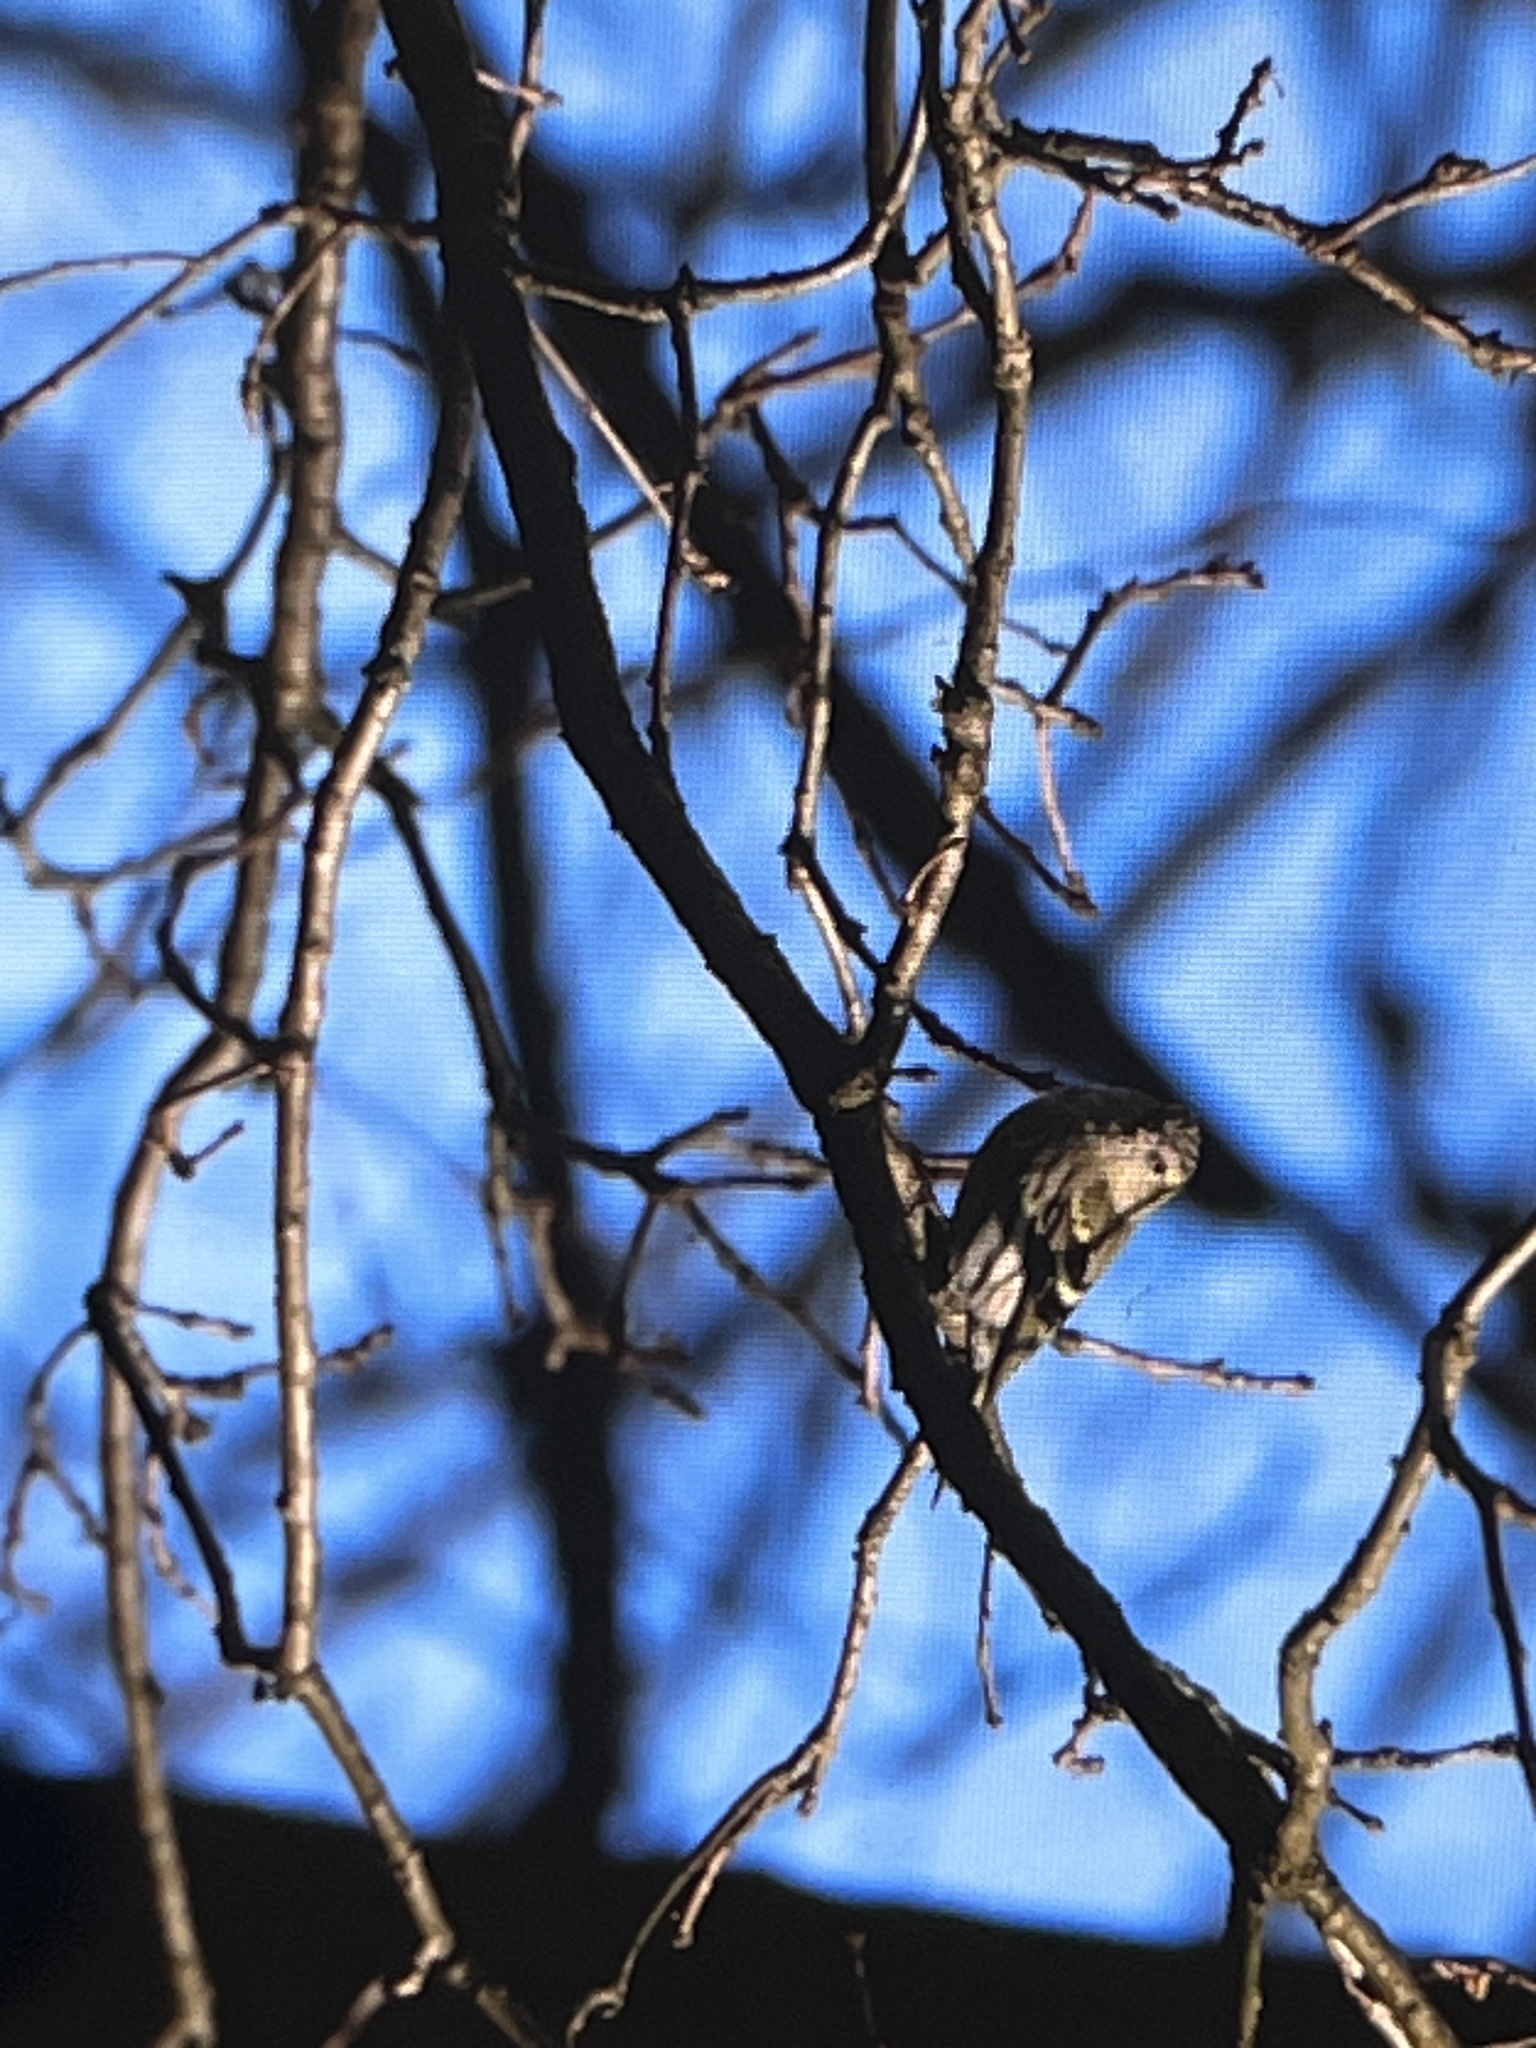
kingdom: Animalia
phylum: Chordata
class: Aves
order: Passeriformes
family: Fringillidae
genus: Spinus
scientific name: Spinus spinus
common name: Eurasian siskin
